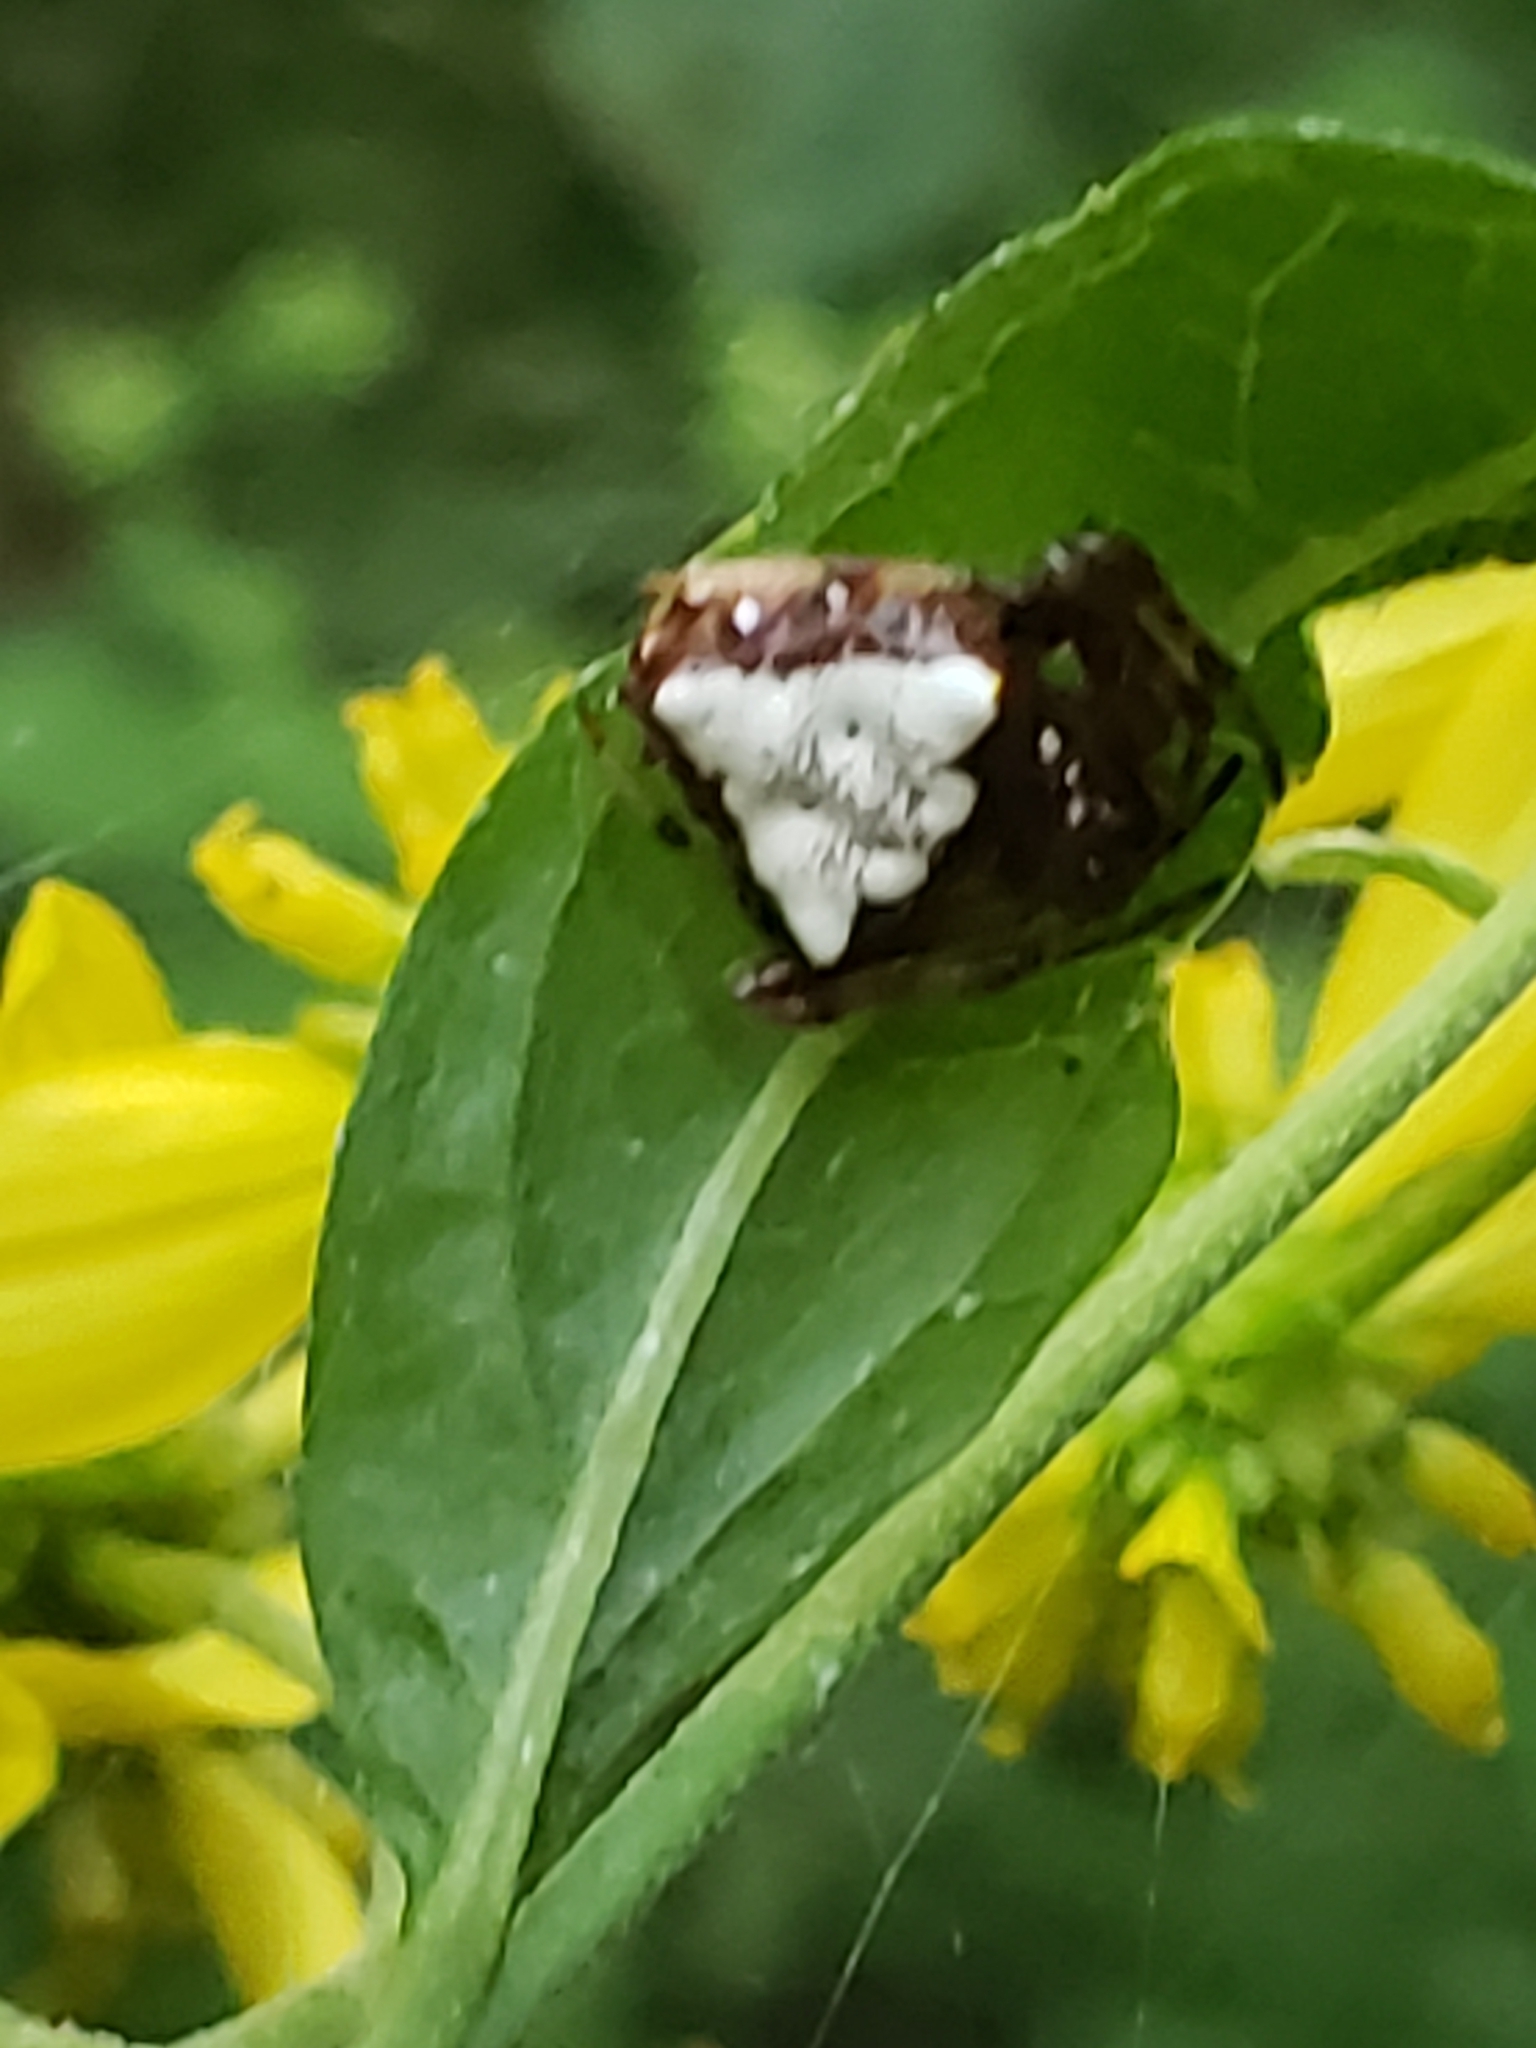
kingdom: Animalia
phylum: Arthropoda
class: Arachnida
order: Araneae
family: Araneidae
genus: Verrucosa
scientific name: Verrucosa arenata
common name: Orb weavers
